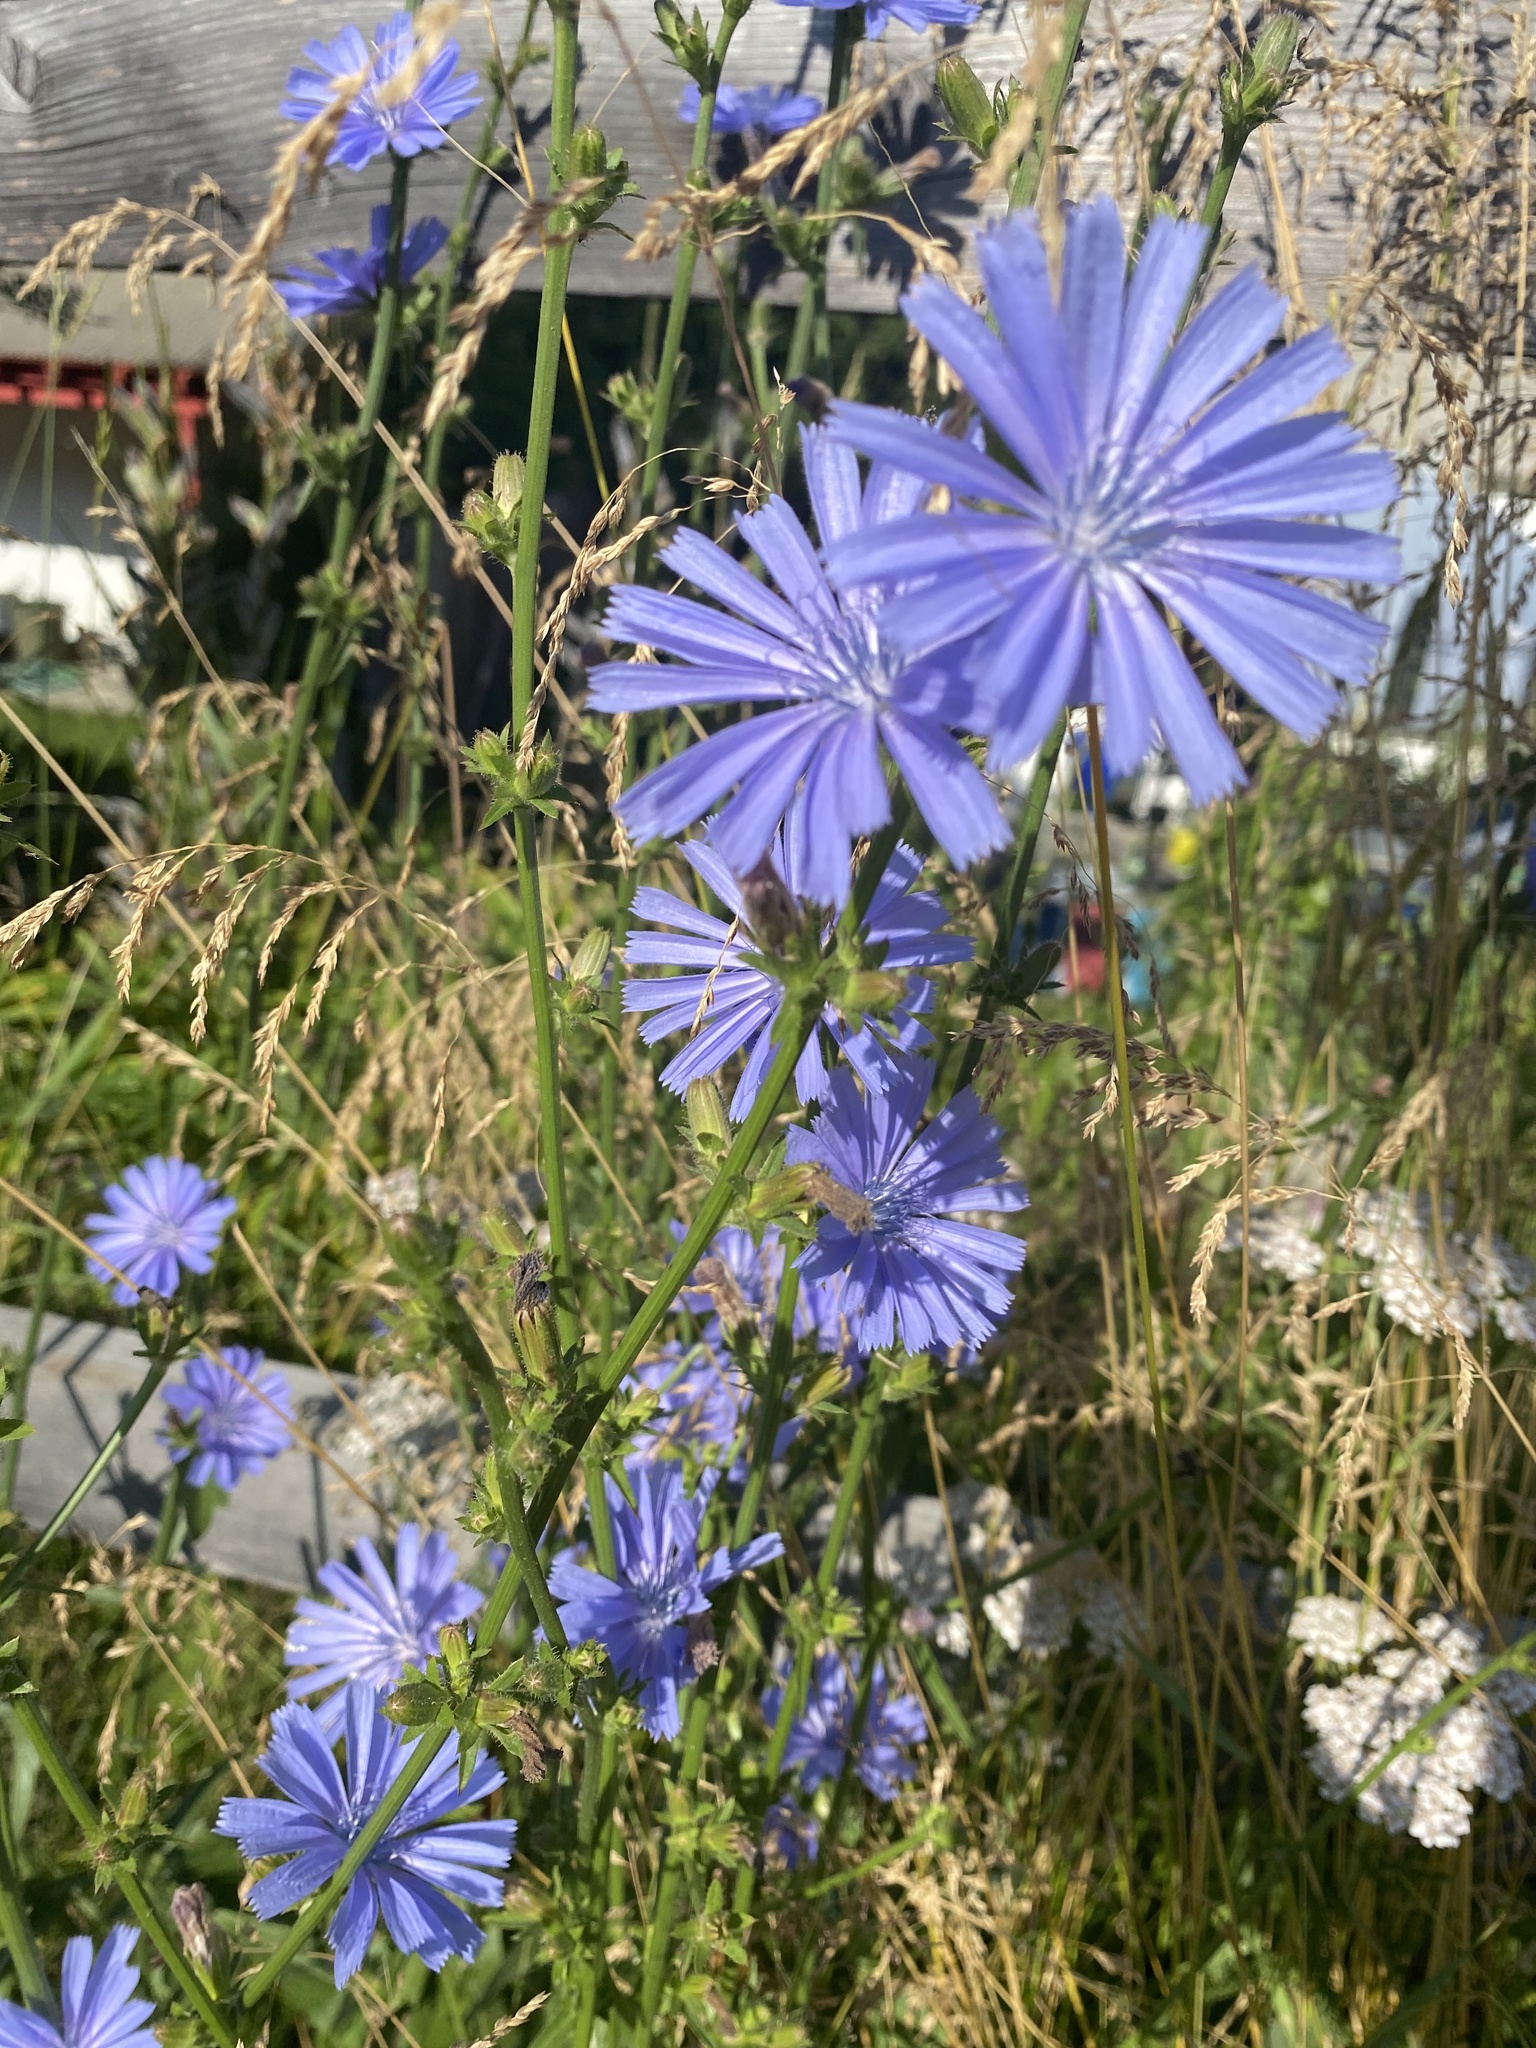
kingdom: Plantae
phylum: Tracheophyta
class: Magnoliopsida
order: Asterales
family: Asteraceae
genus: Cichorium
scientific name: Cichorium intybus
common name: Chicory
